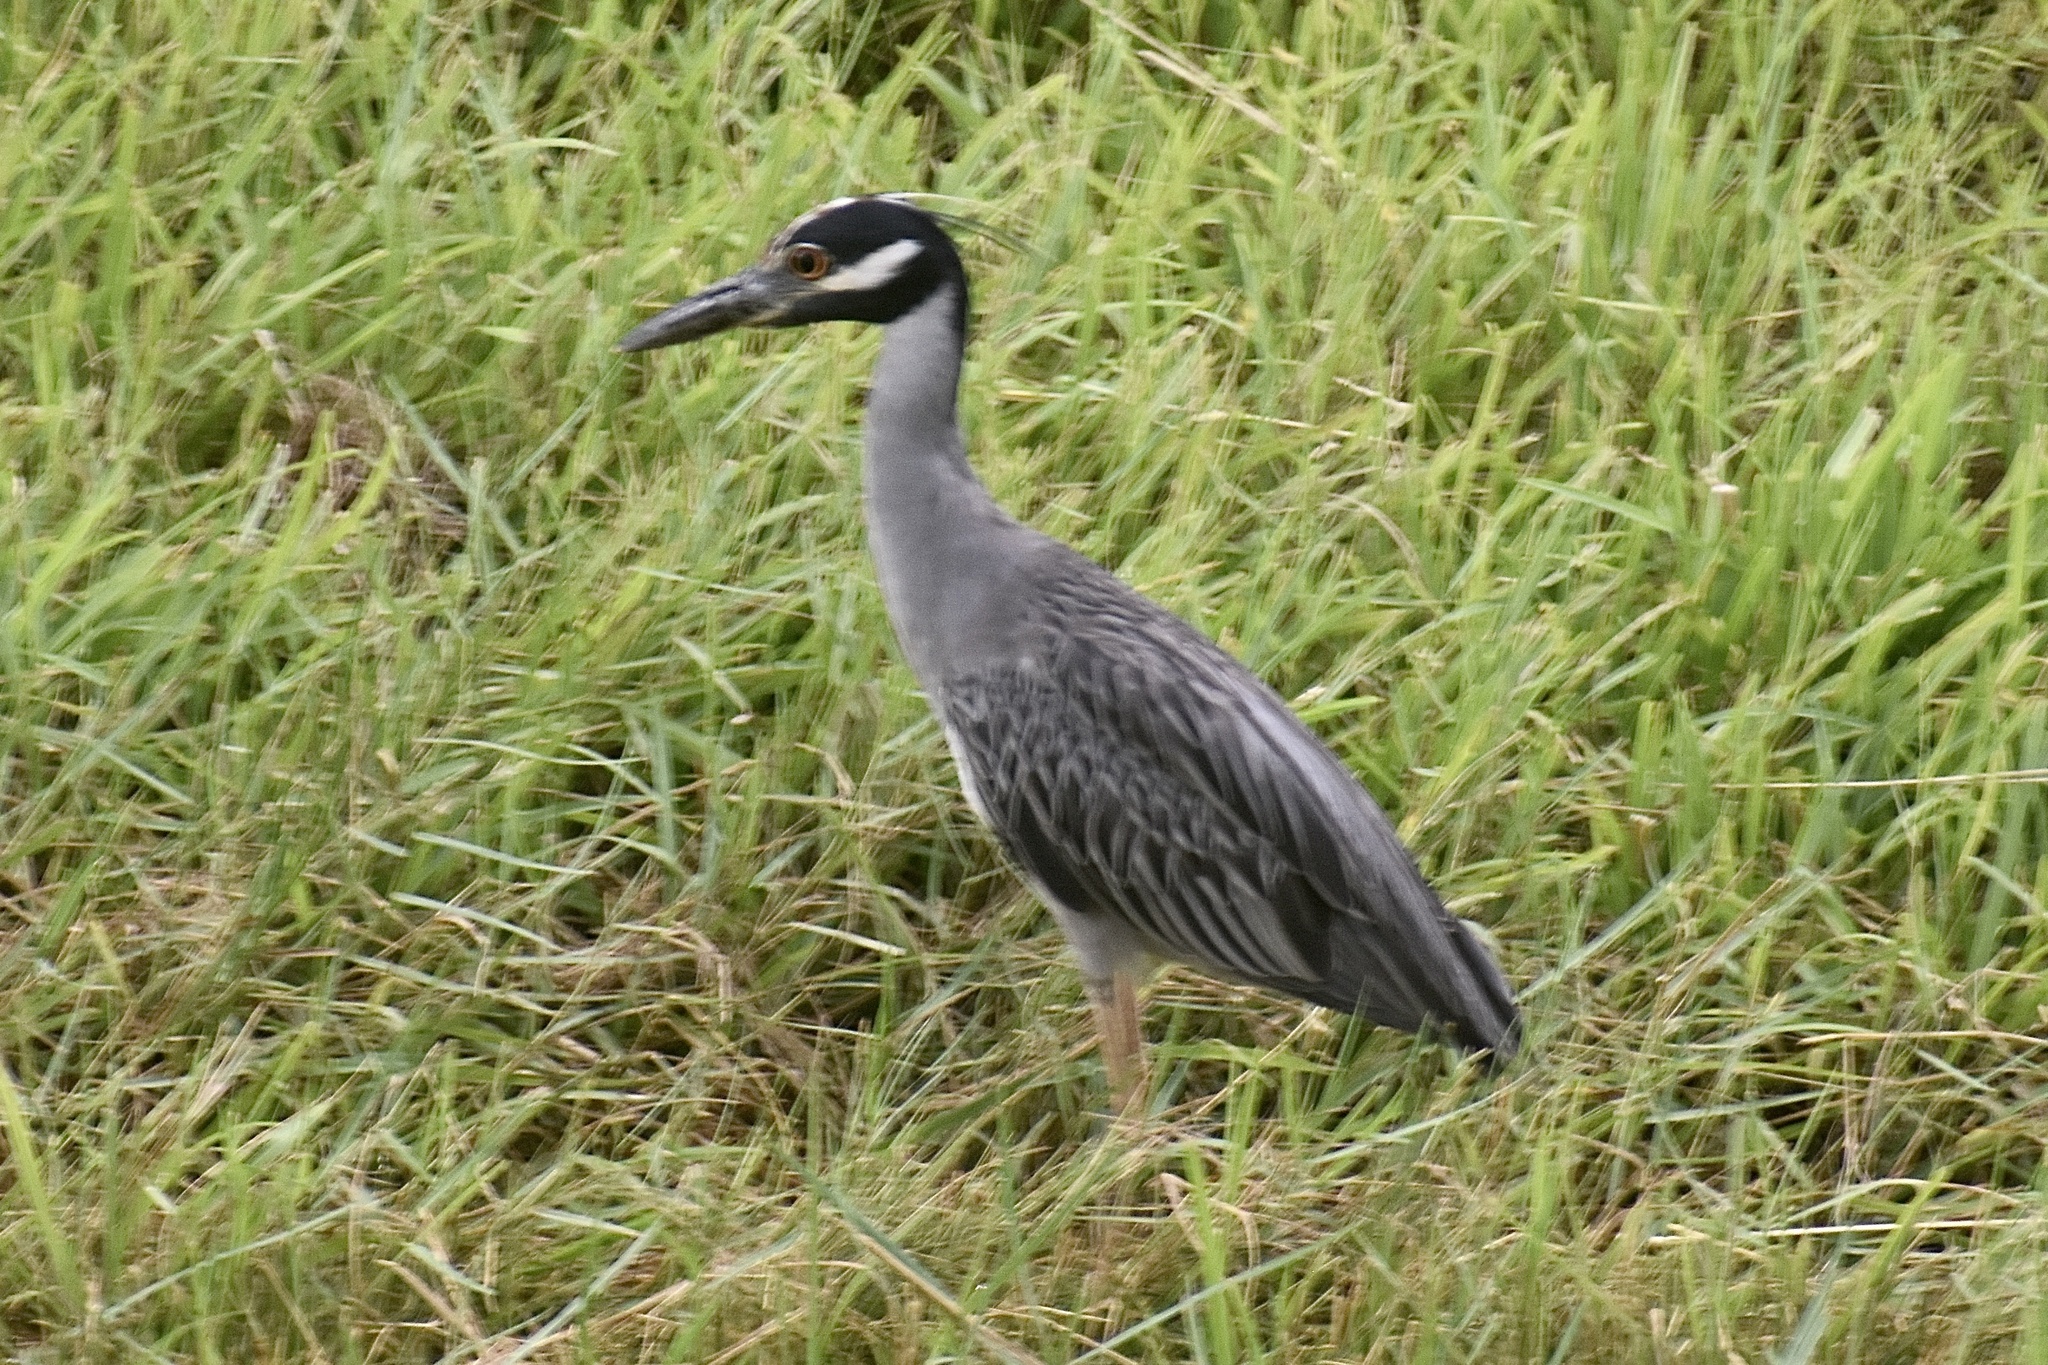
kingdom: Animalia
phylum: Chordata
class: Aves
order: Pelecaniformes
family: Ardeidae
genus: Nyctanassa
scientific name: Nyctanassa violacea
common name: Yellow-crowned night heron
